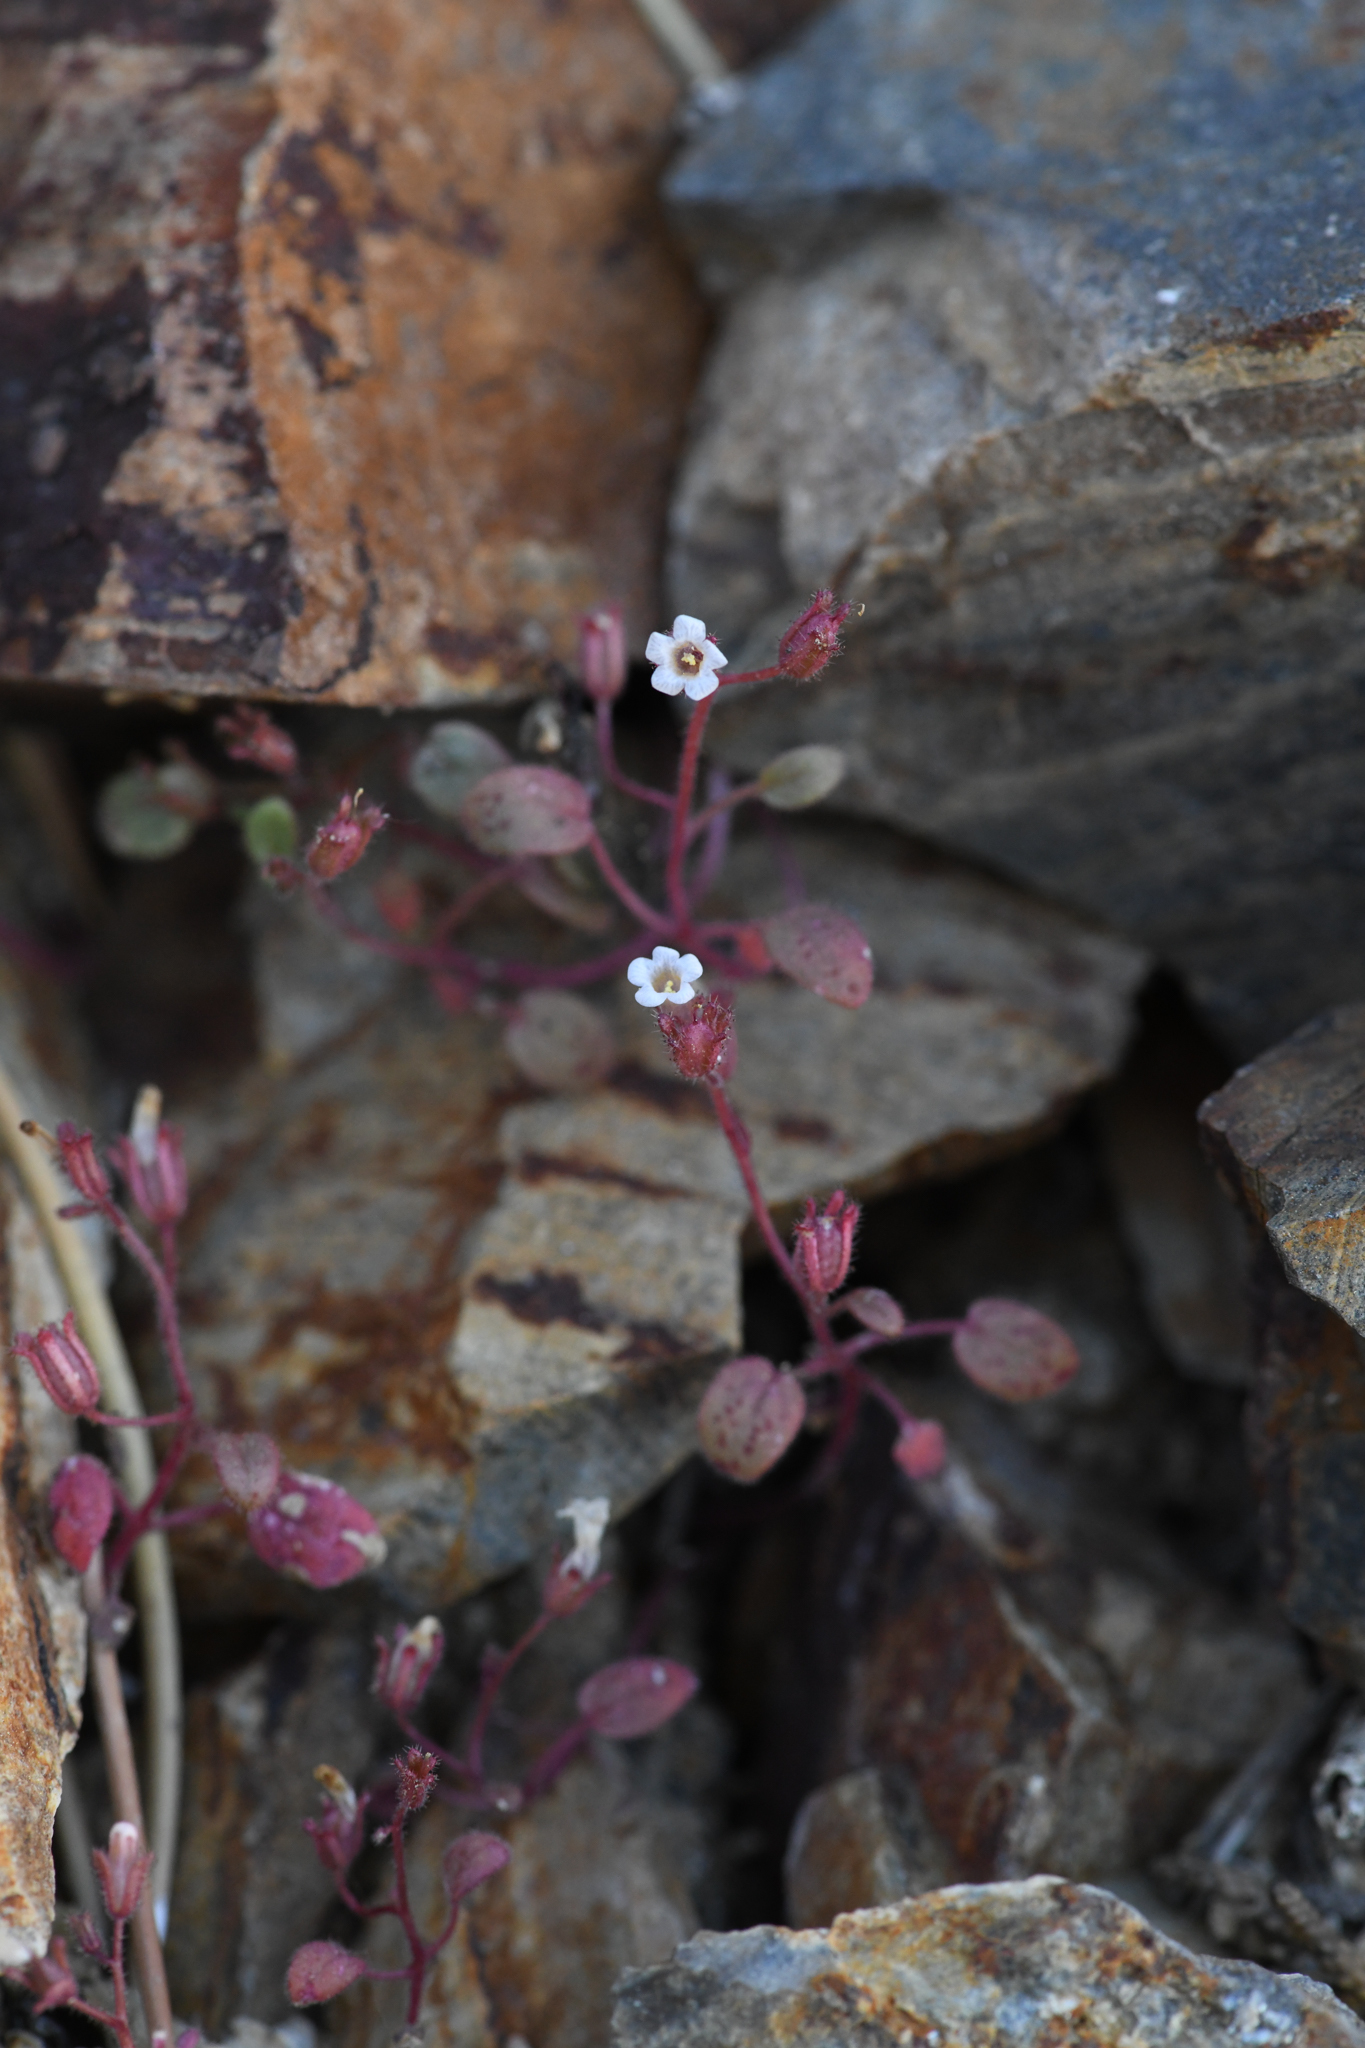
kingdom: Plantae
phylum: Tracheophyta
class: Magnoliopsida
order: Boraginales
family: Hydrophyllaceae
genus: Phacelia
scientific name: Phacelia barnebyana
